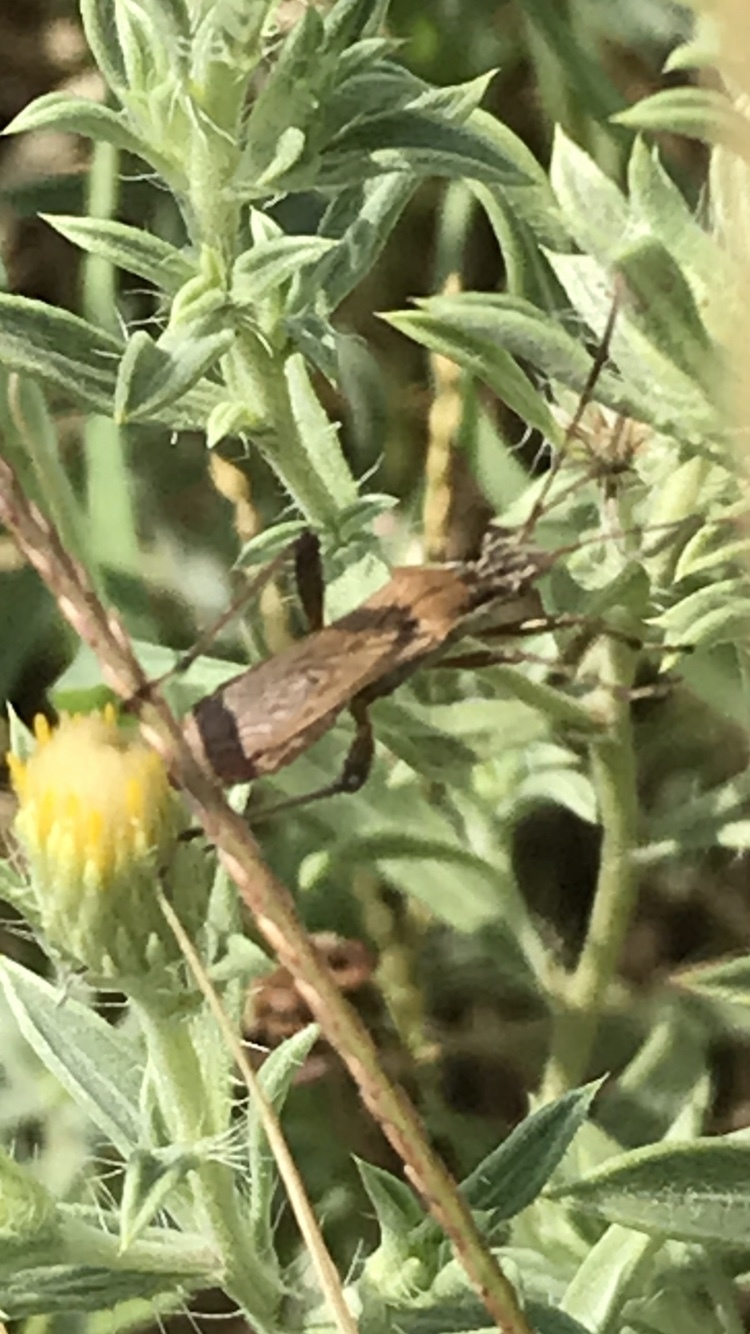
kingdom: Animalia
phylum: Arthropoda
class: Insecta
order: Hemiptera
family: Alydidae
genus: Alydus
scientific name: Alydus pilosulus
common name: Broad-headed bug
